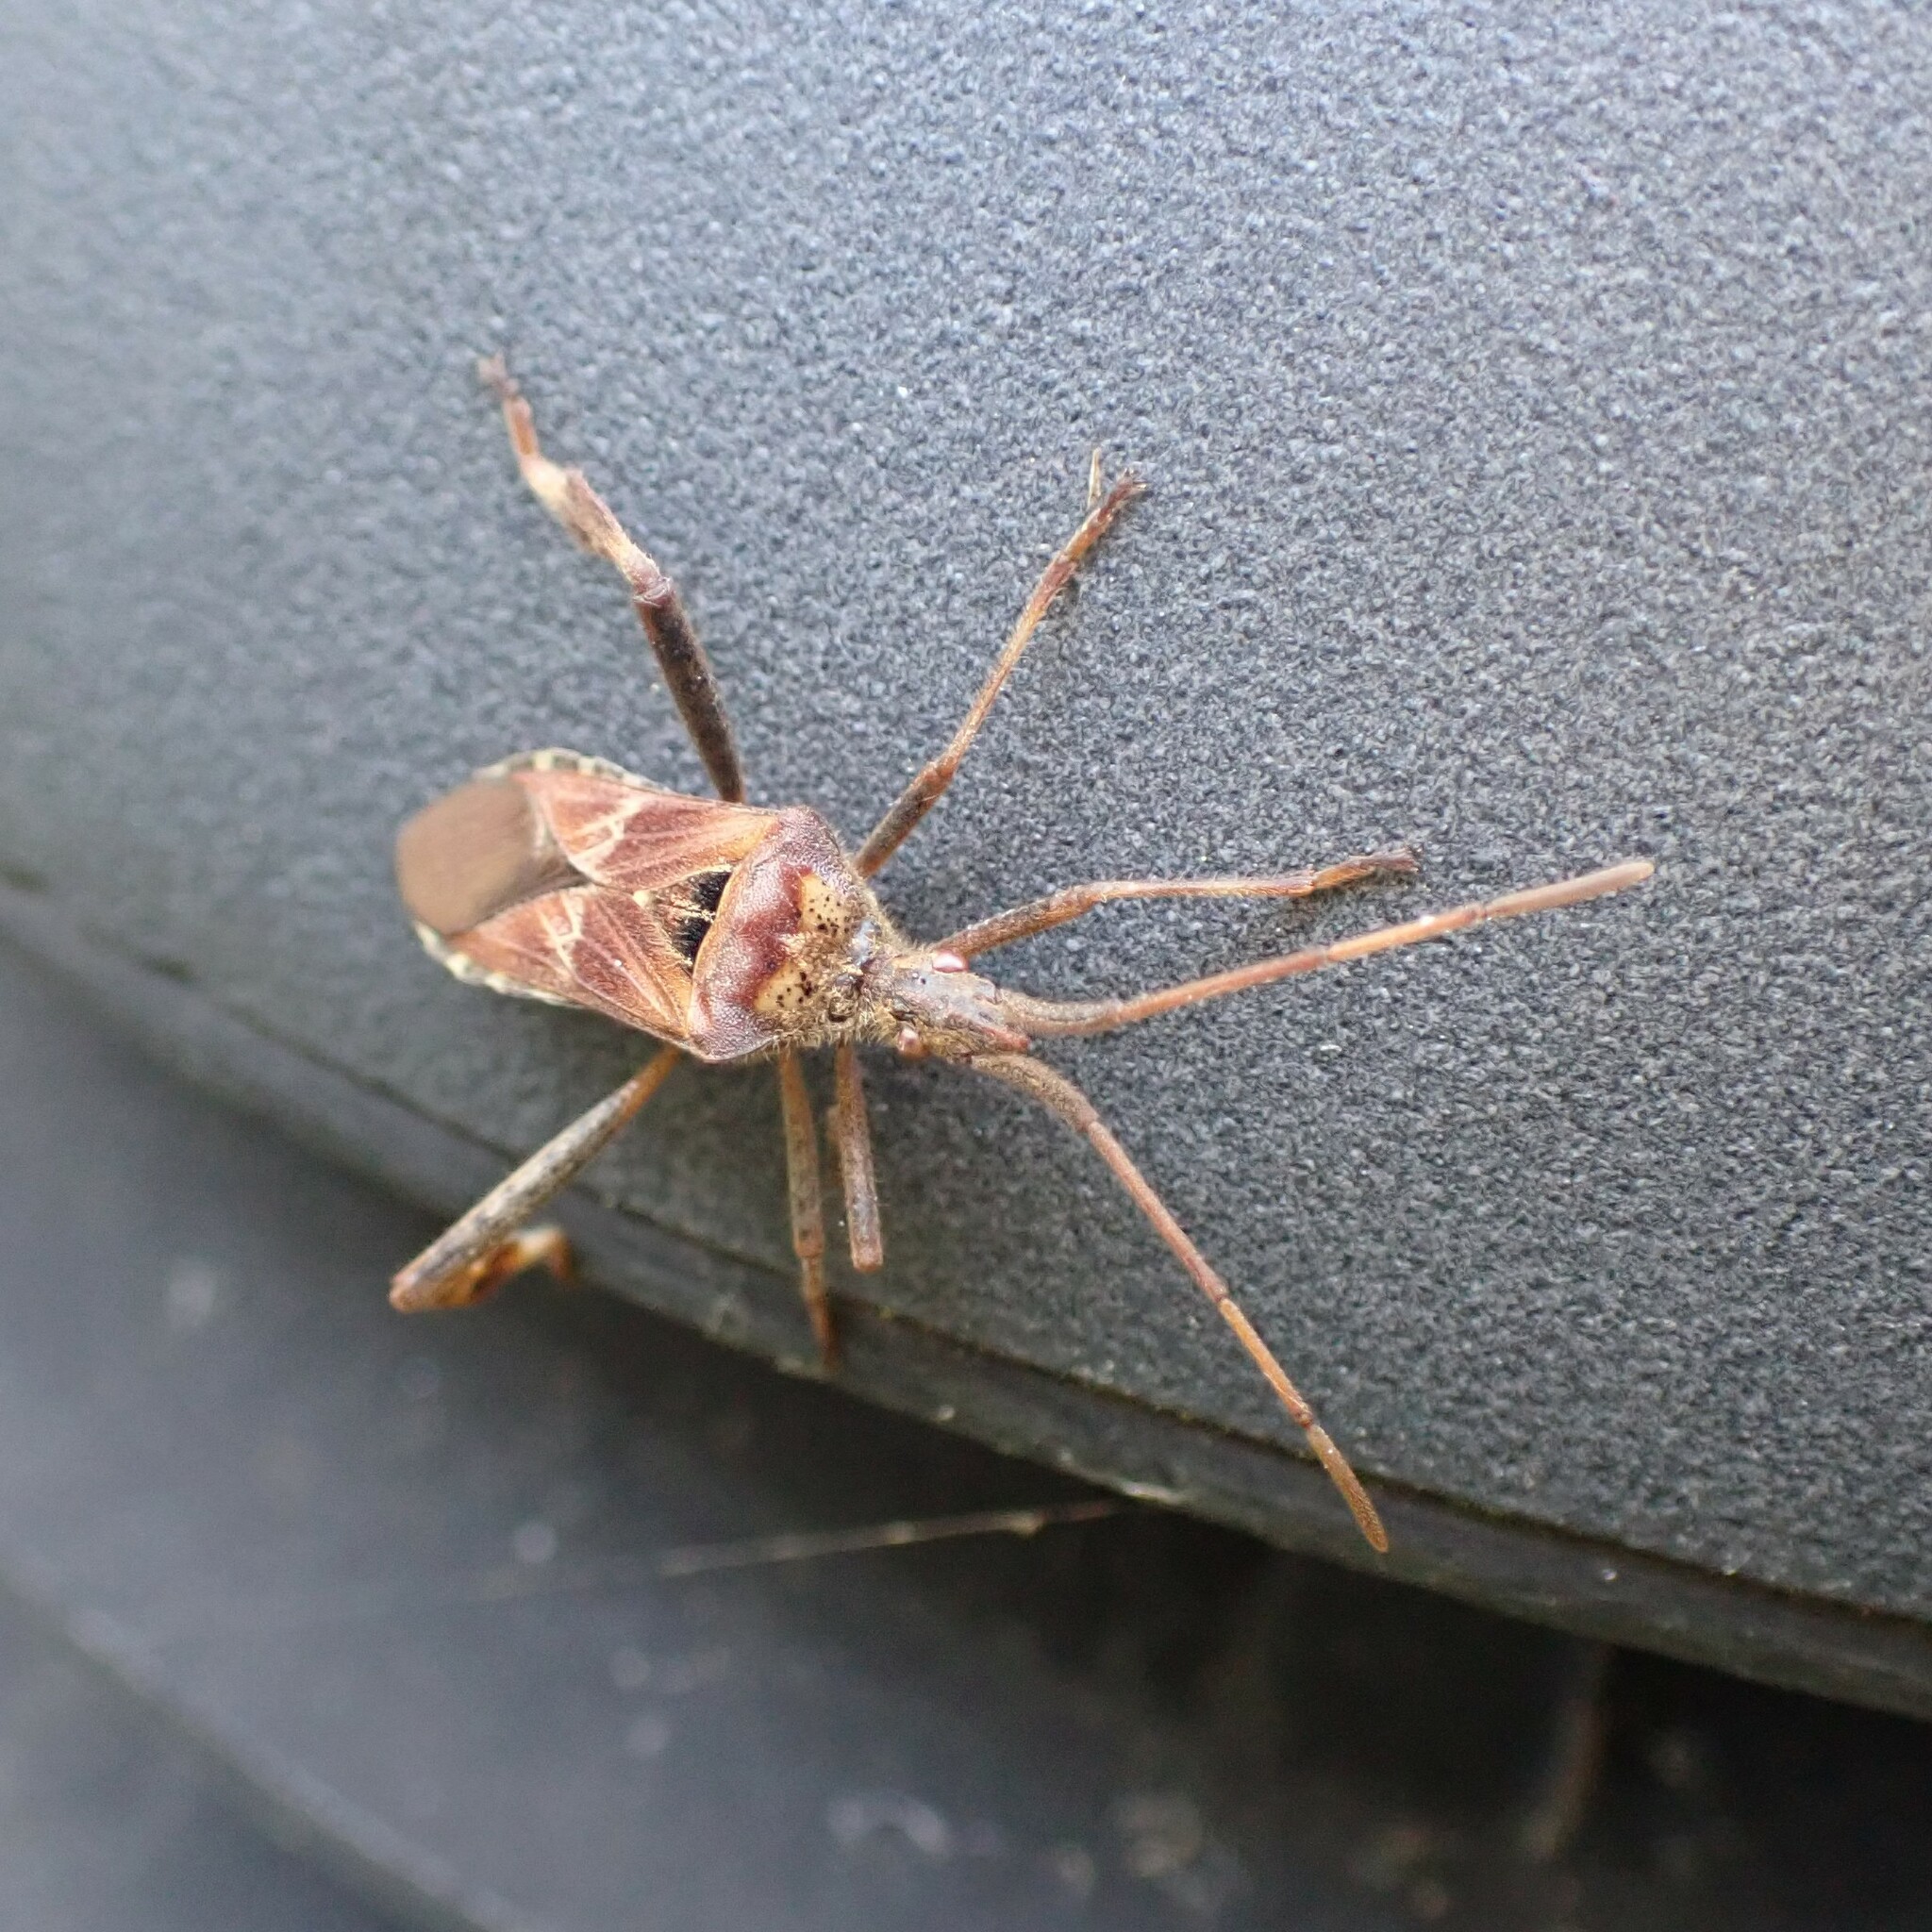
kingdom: Animalia
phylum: Arthropoda
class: Insecta
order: Hemiptera
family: Coreidae
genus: Leptoglossus
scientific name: Leptoglossus occidentalis
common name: Western conifer-seed bug
